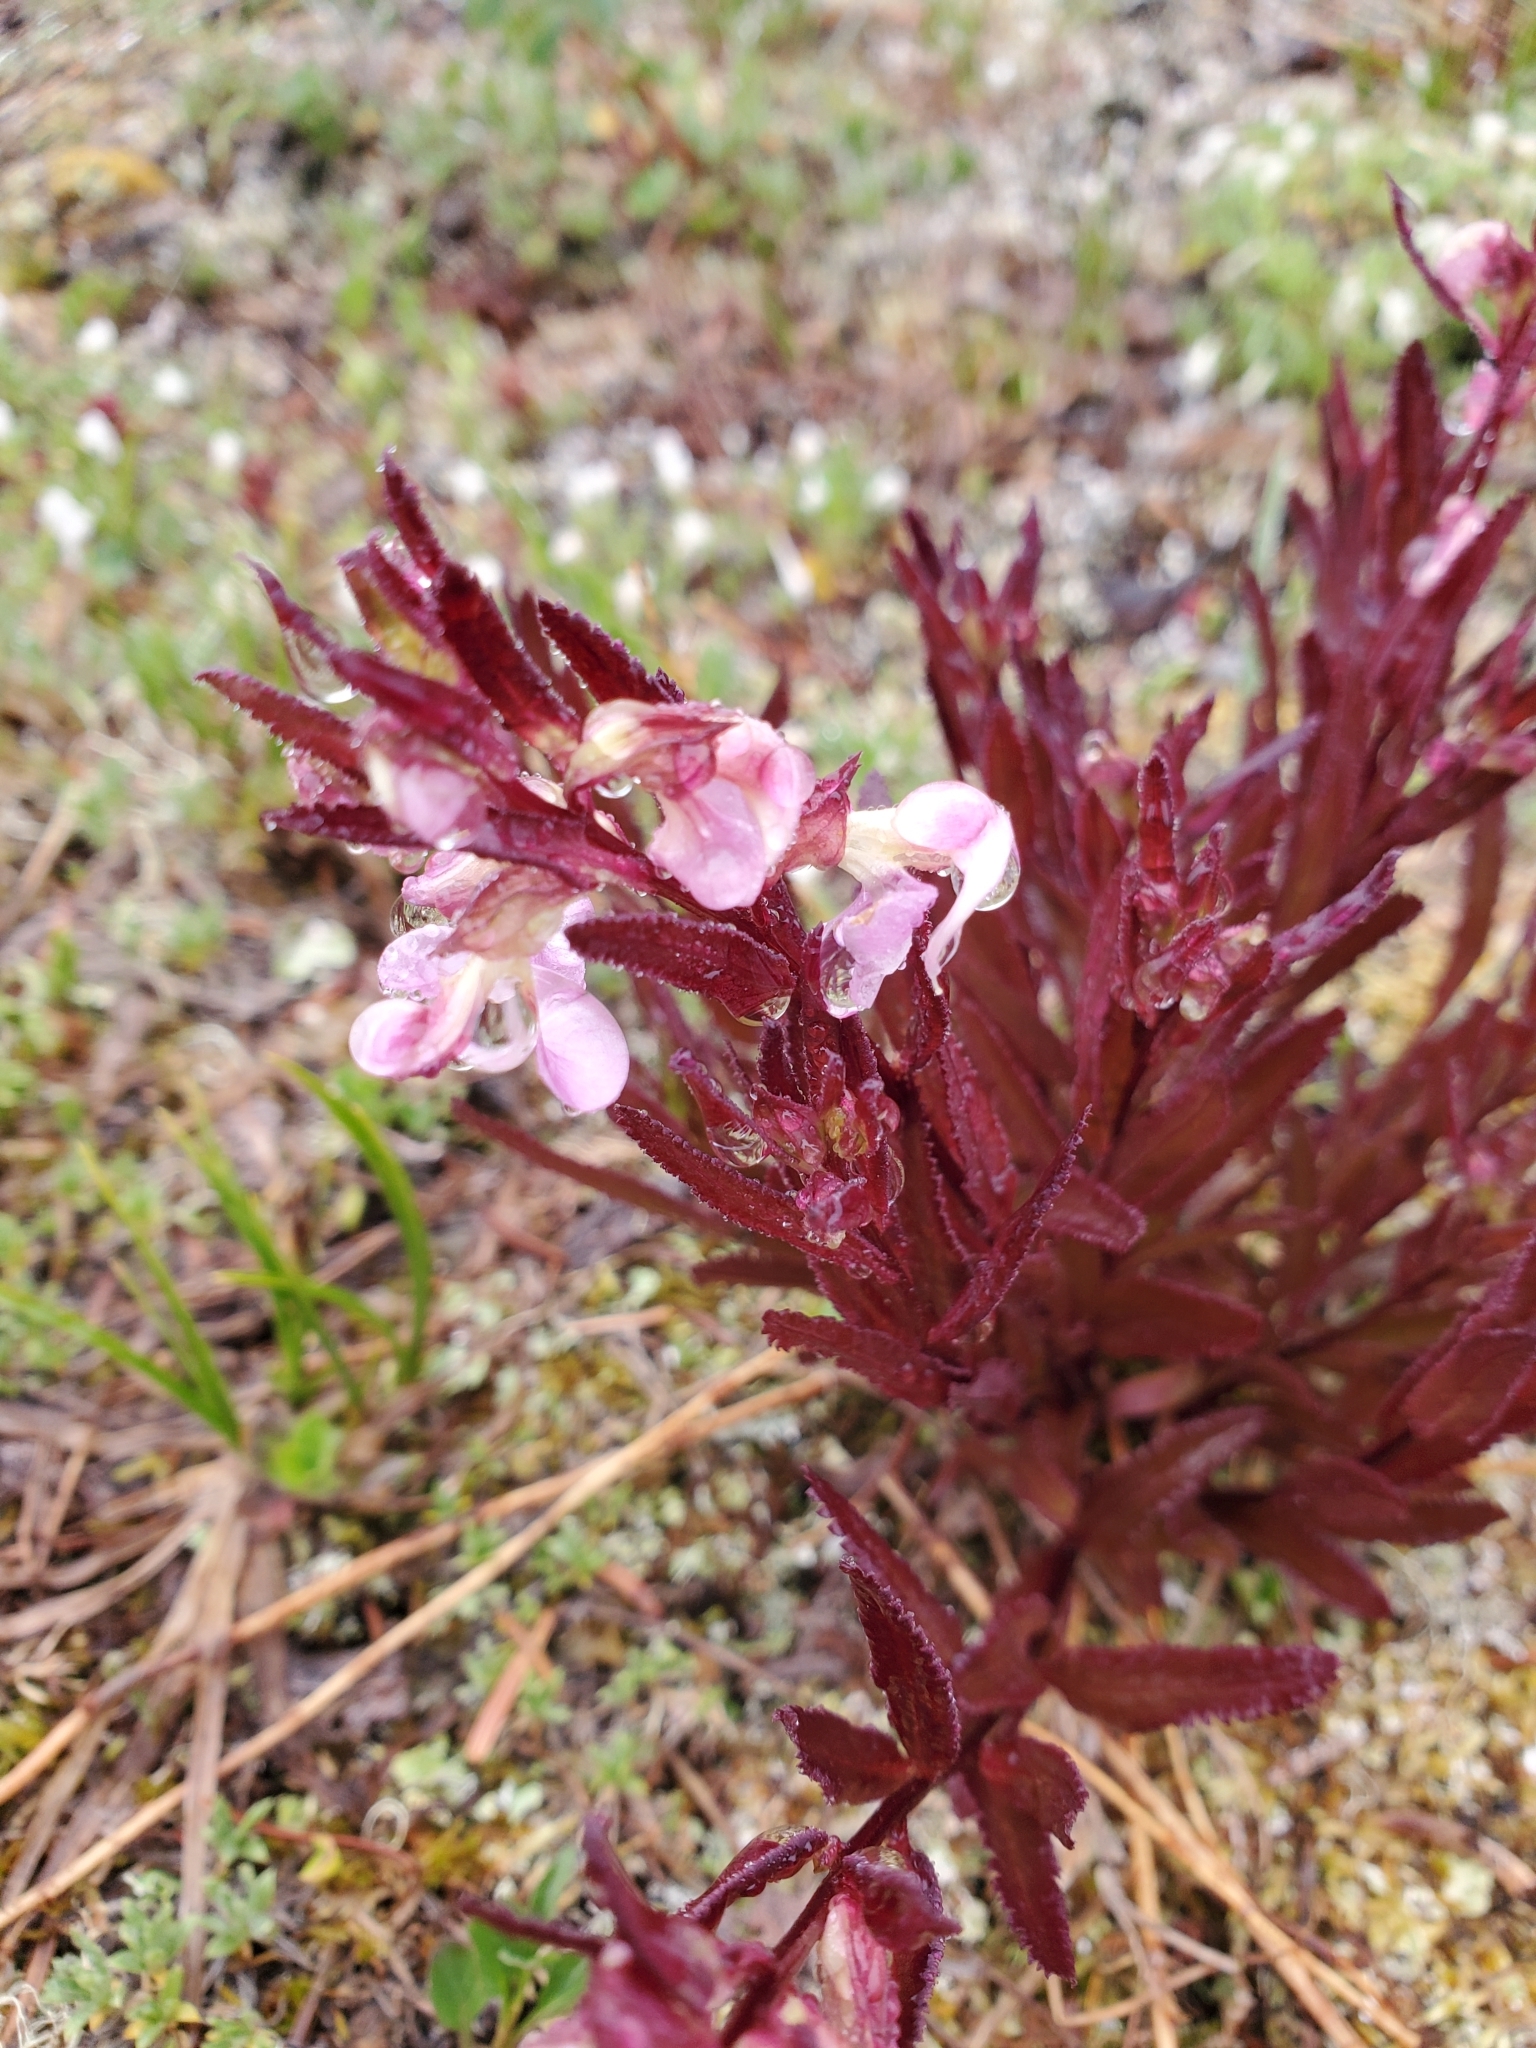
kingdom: Plantae
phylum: Tracheophyta
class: Magnoliopsida
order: Lamiales
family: Orobanchaceae
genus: Pedicularis
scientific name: Pedicularis racemosa
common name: Leafy lousewort
